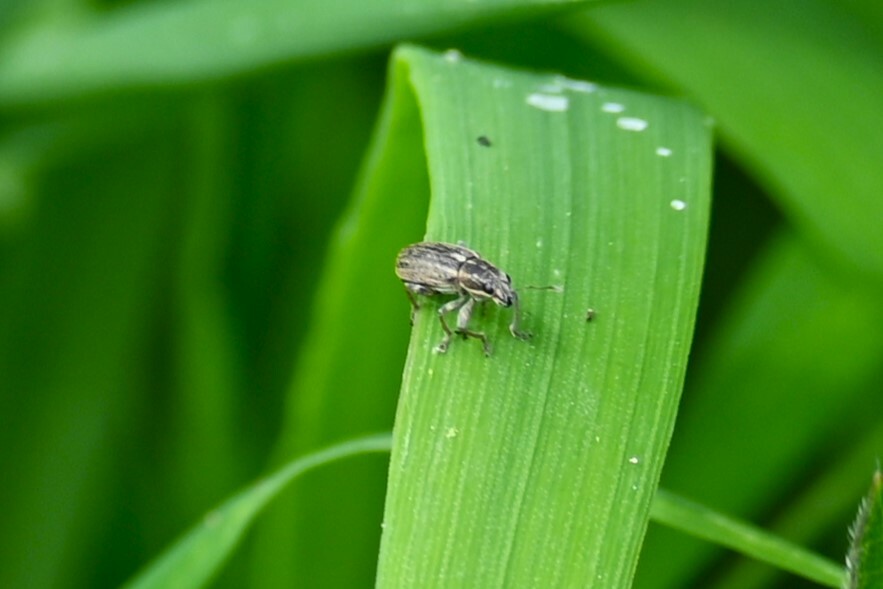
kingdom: Animalia
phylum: Arthropoda
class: Insecta
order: Coleoptera
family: Curculionidae
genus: Sitona
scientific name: Sitona lineatus
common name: Weevil
